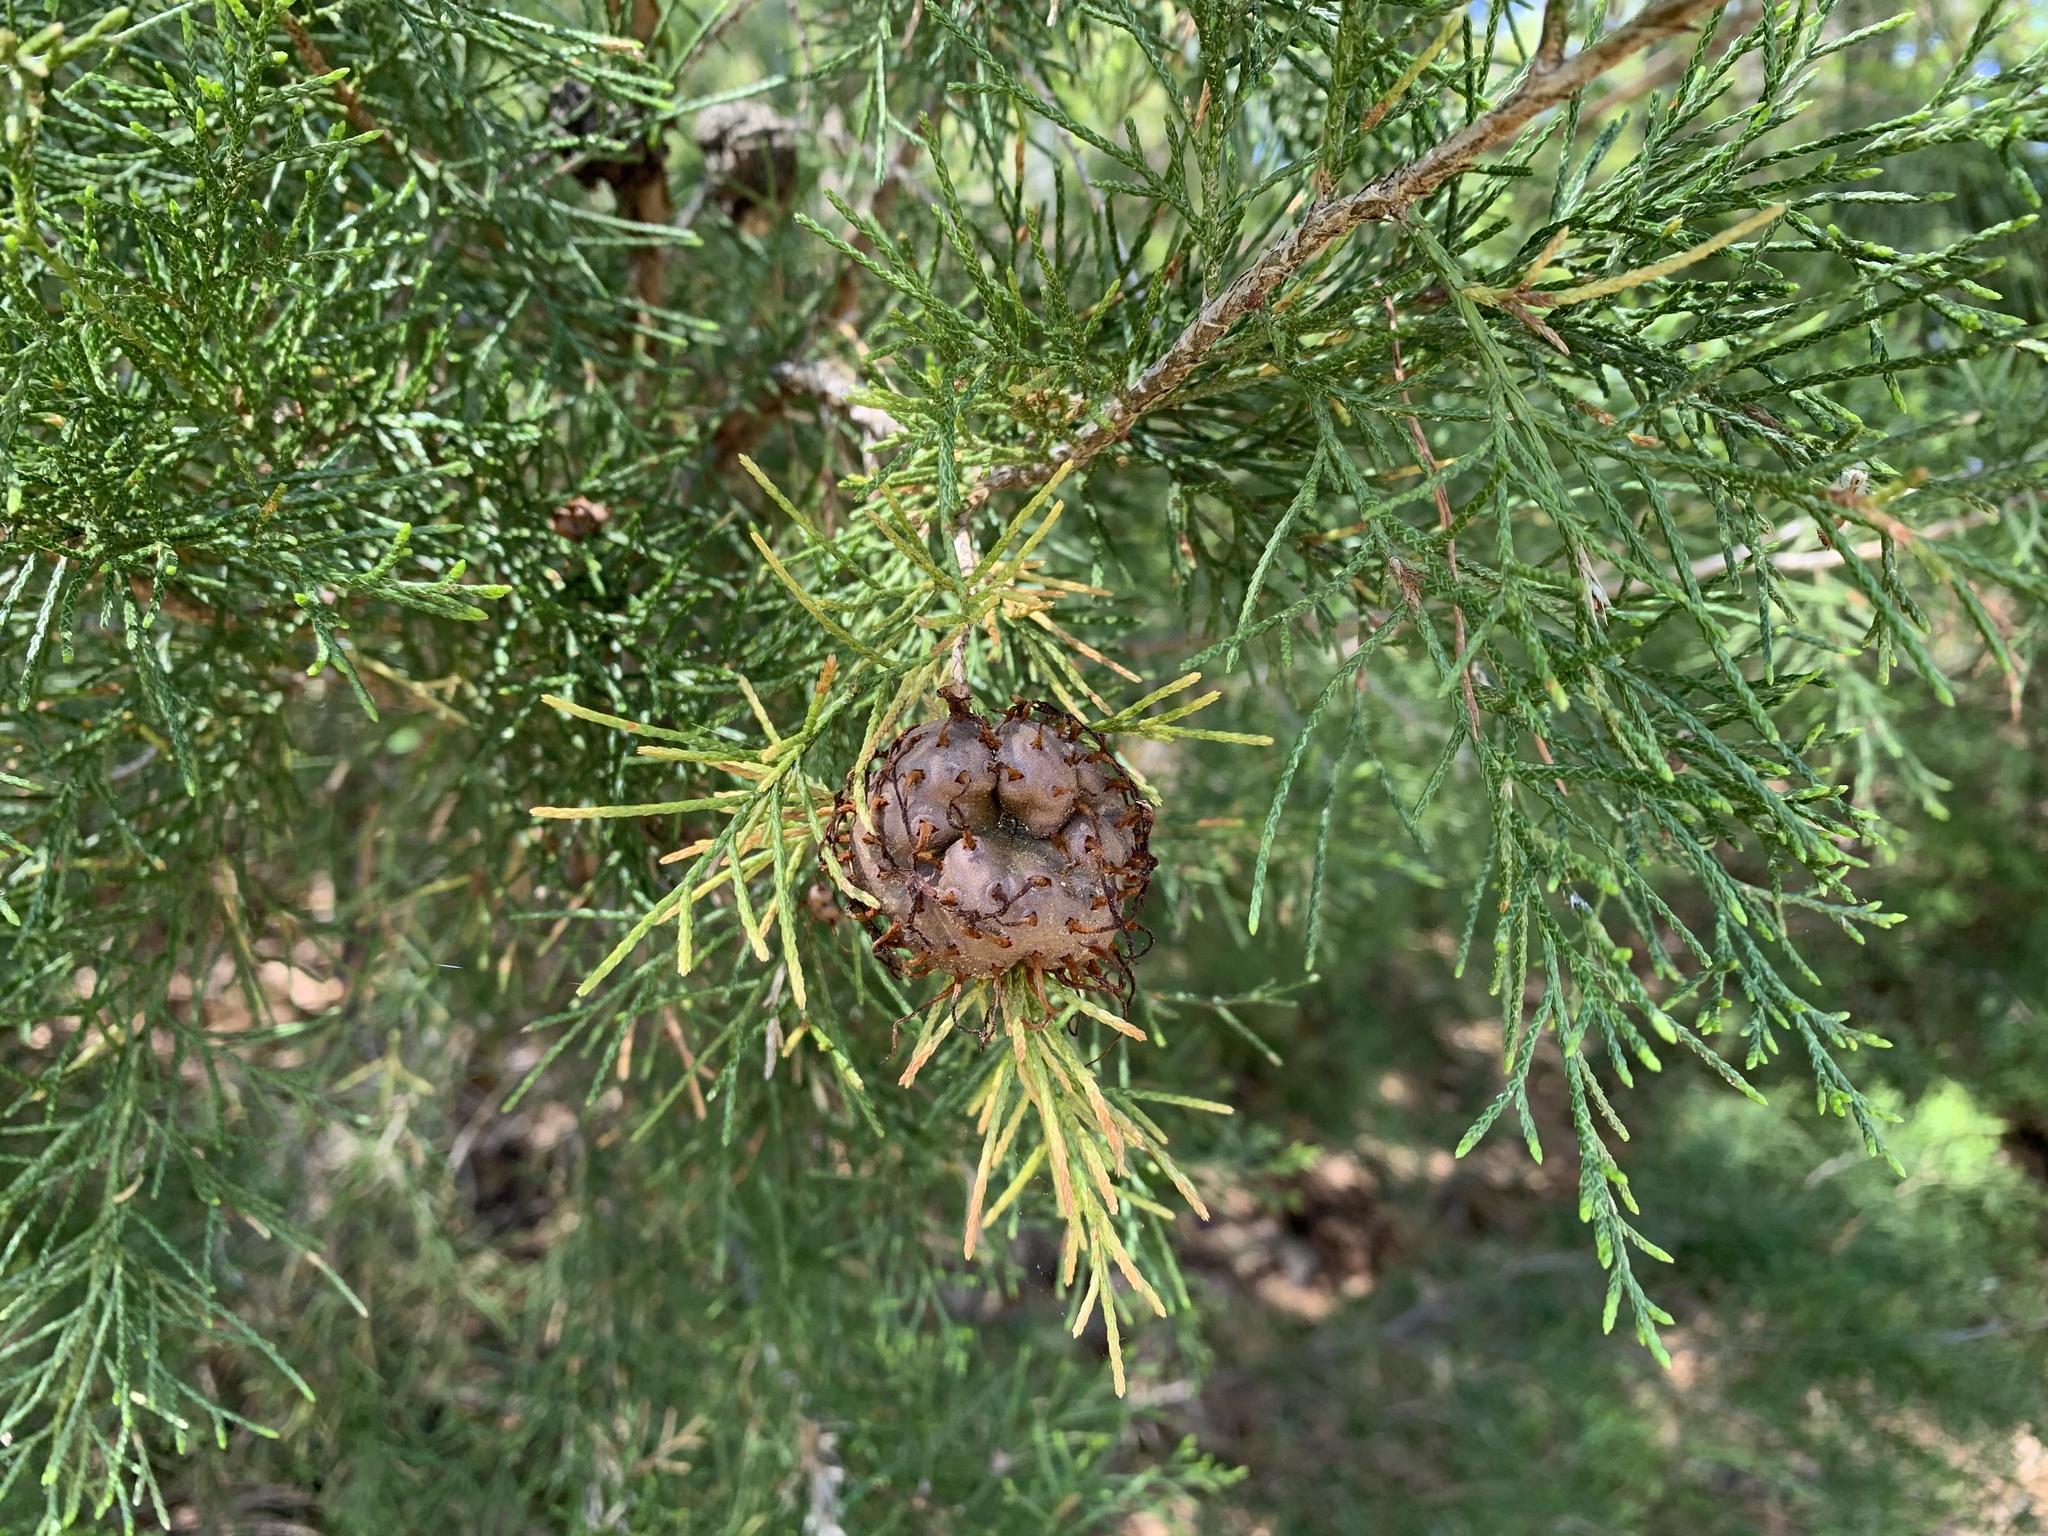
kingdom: Fungi
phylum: Basidiomycota
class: Pucciniomycetes
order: Pucciniales
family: Gymnosporangiaceae
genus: Gymnosporangium
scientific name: Gymnosporangium juniperi-virginianae
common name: Juniper-apple rust
